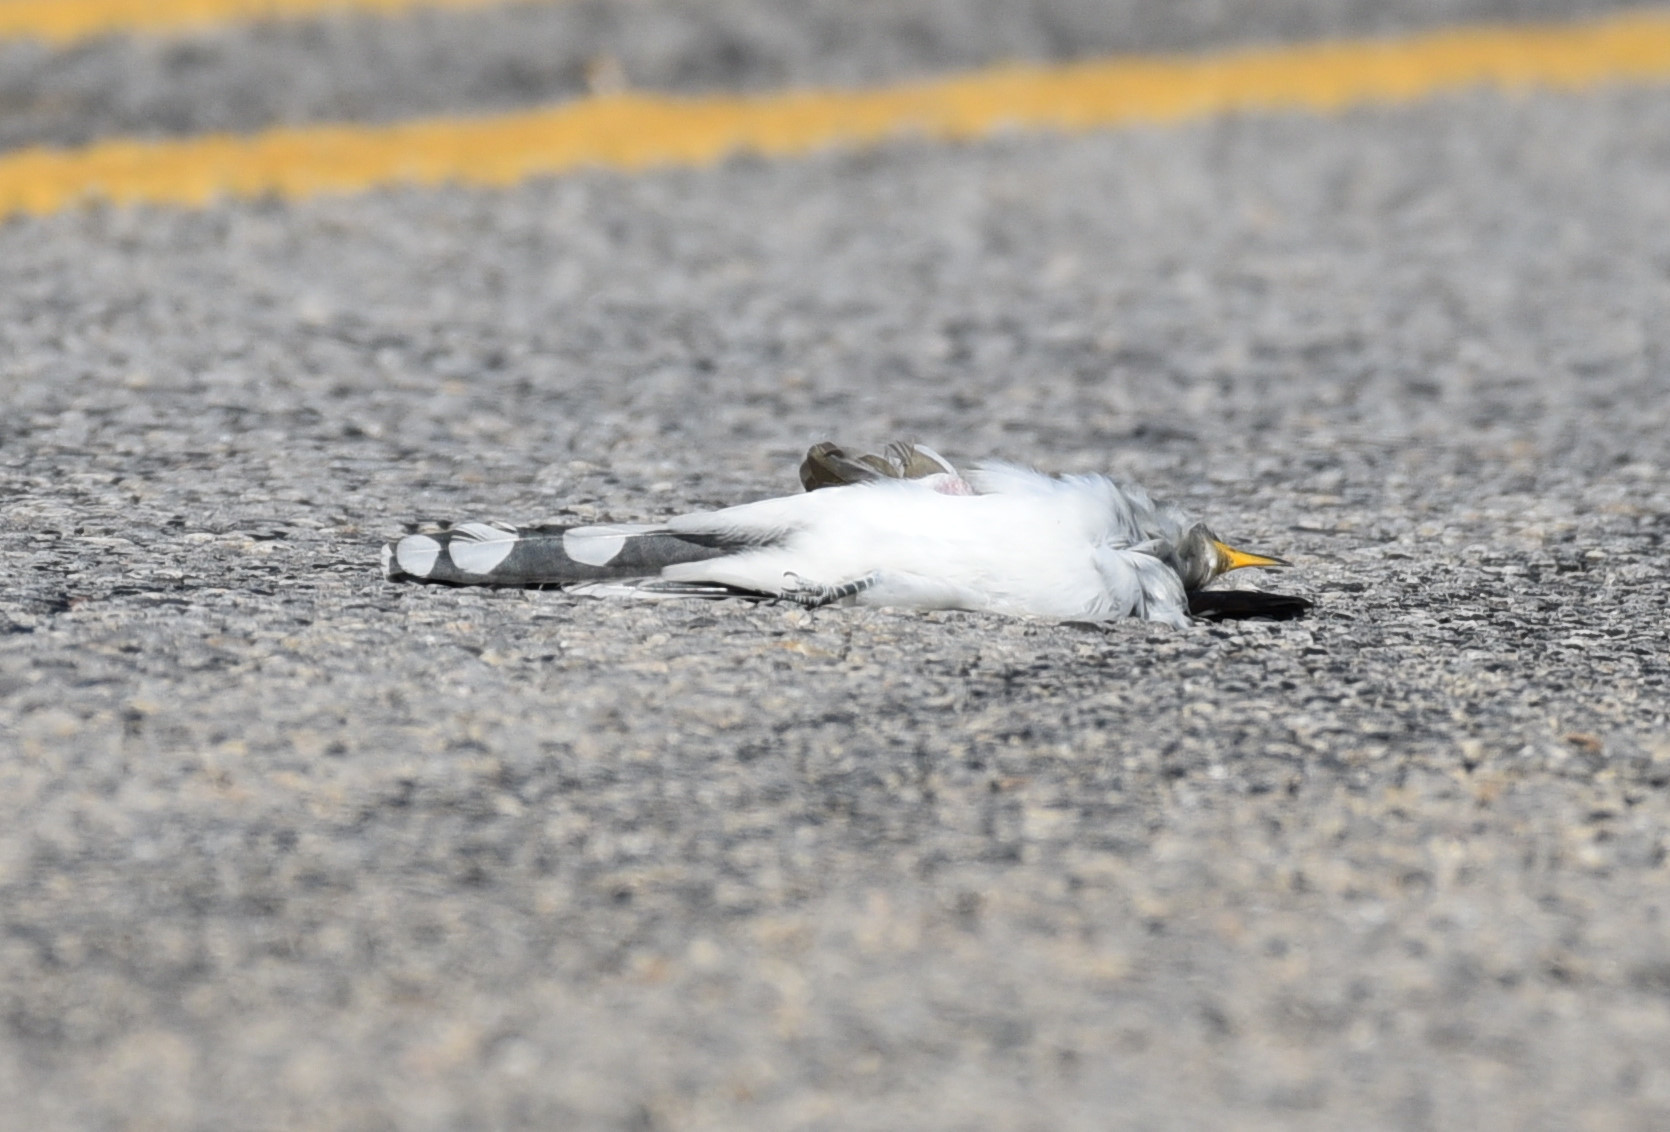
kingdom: Animalia
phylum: Chordata
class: Aves
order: Cuculiformes
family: Cuculidae
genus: Coccyzus
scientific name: Coccyzus americanus
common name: Yellow-billed cuckoo
